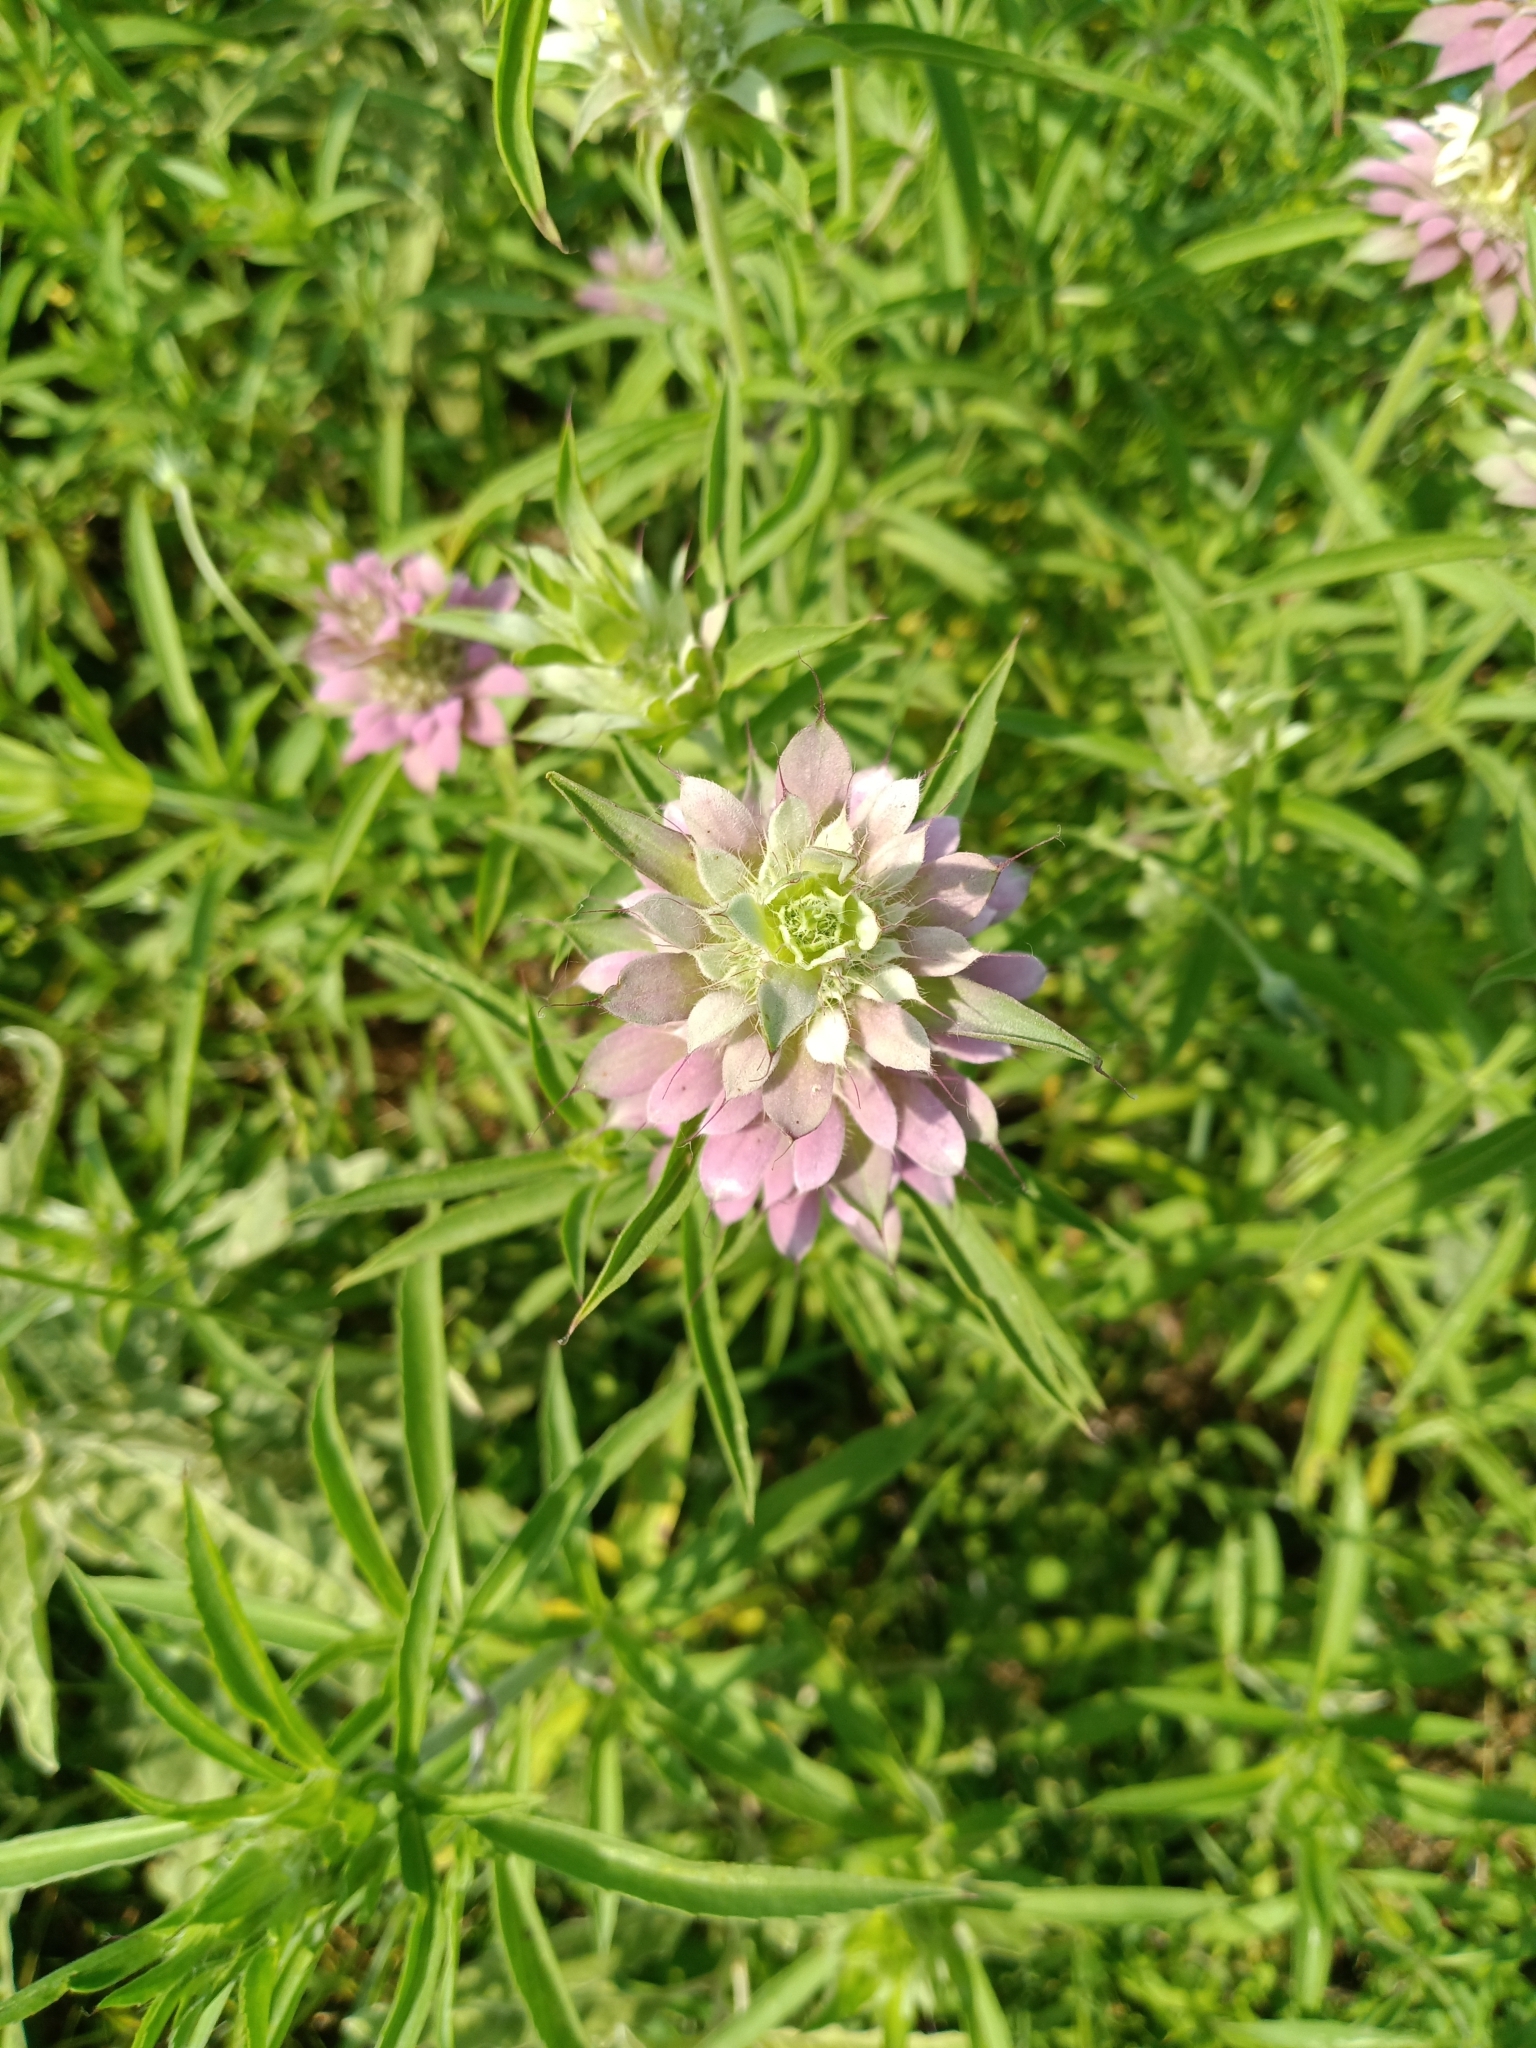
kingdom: Plantae
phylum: Tracheophyta
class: Magnoliopsida
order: Lamiales
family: Lamiaceae
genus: Monarda
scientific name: Monarda citriodora
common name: Lemon beebalm
